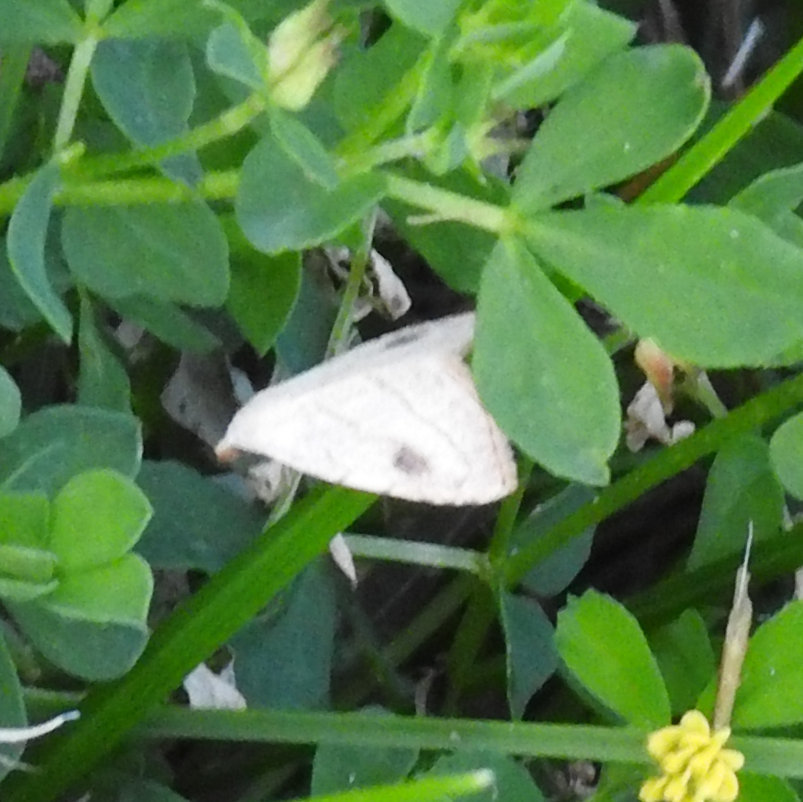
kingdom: Animalia
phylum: Arthropoda
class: Insecta
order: Lepidoptera
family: Erebidae
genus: Rivula
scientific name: Rivula propinqualis
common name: Spotted grass moth
